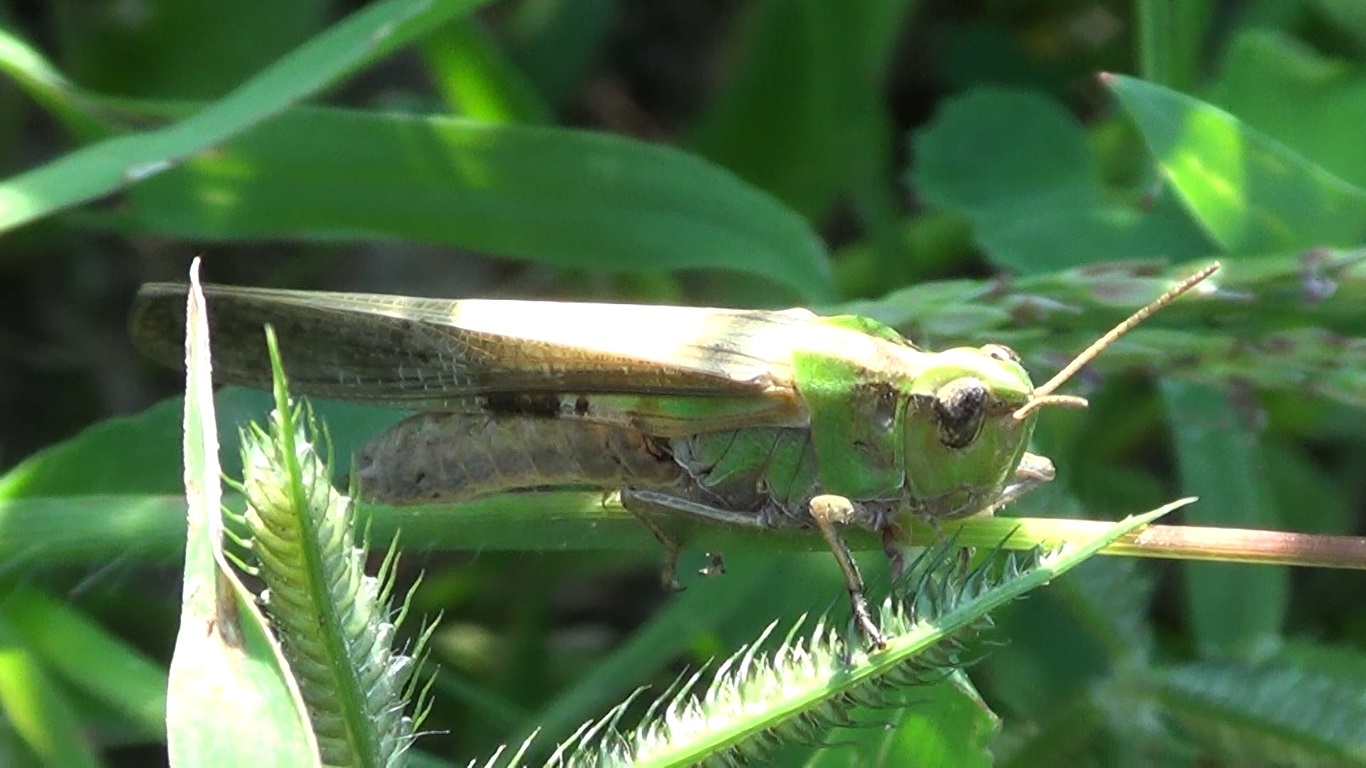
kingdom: Animalia
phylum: Arthropoda
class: Insecta
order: Orthoptera
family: Acrididae
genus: Aiolopus
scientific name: Aiolopus puissanti
